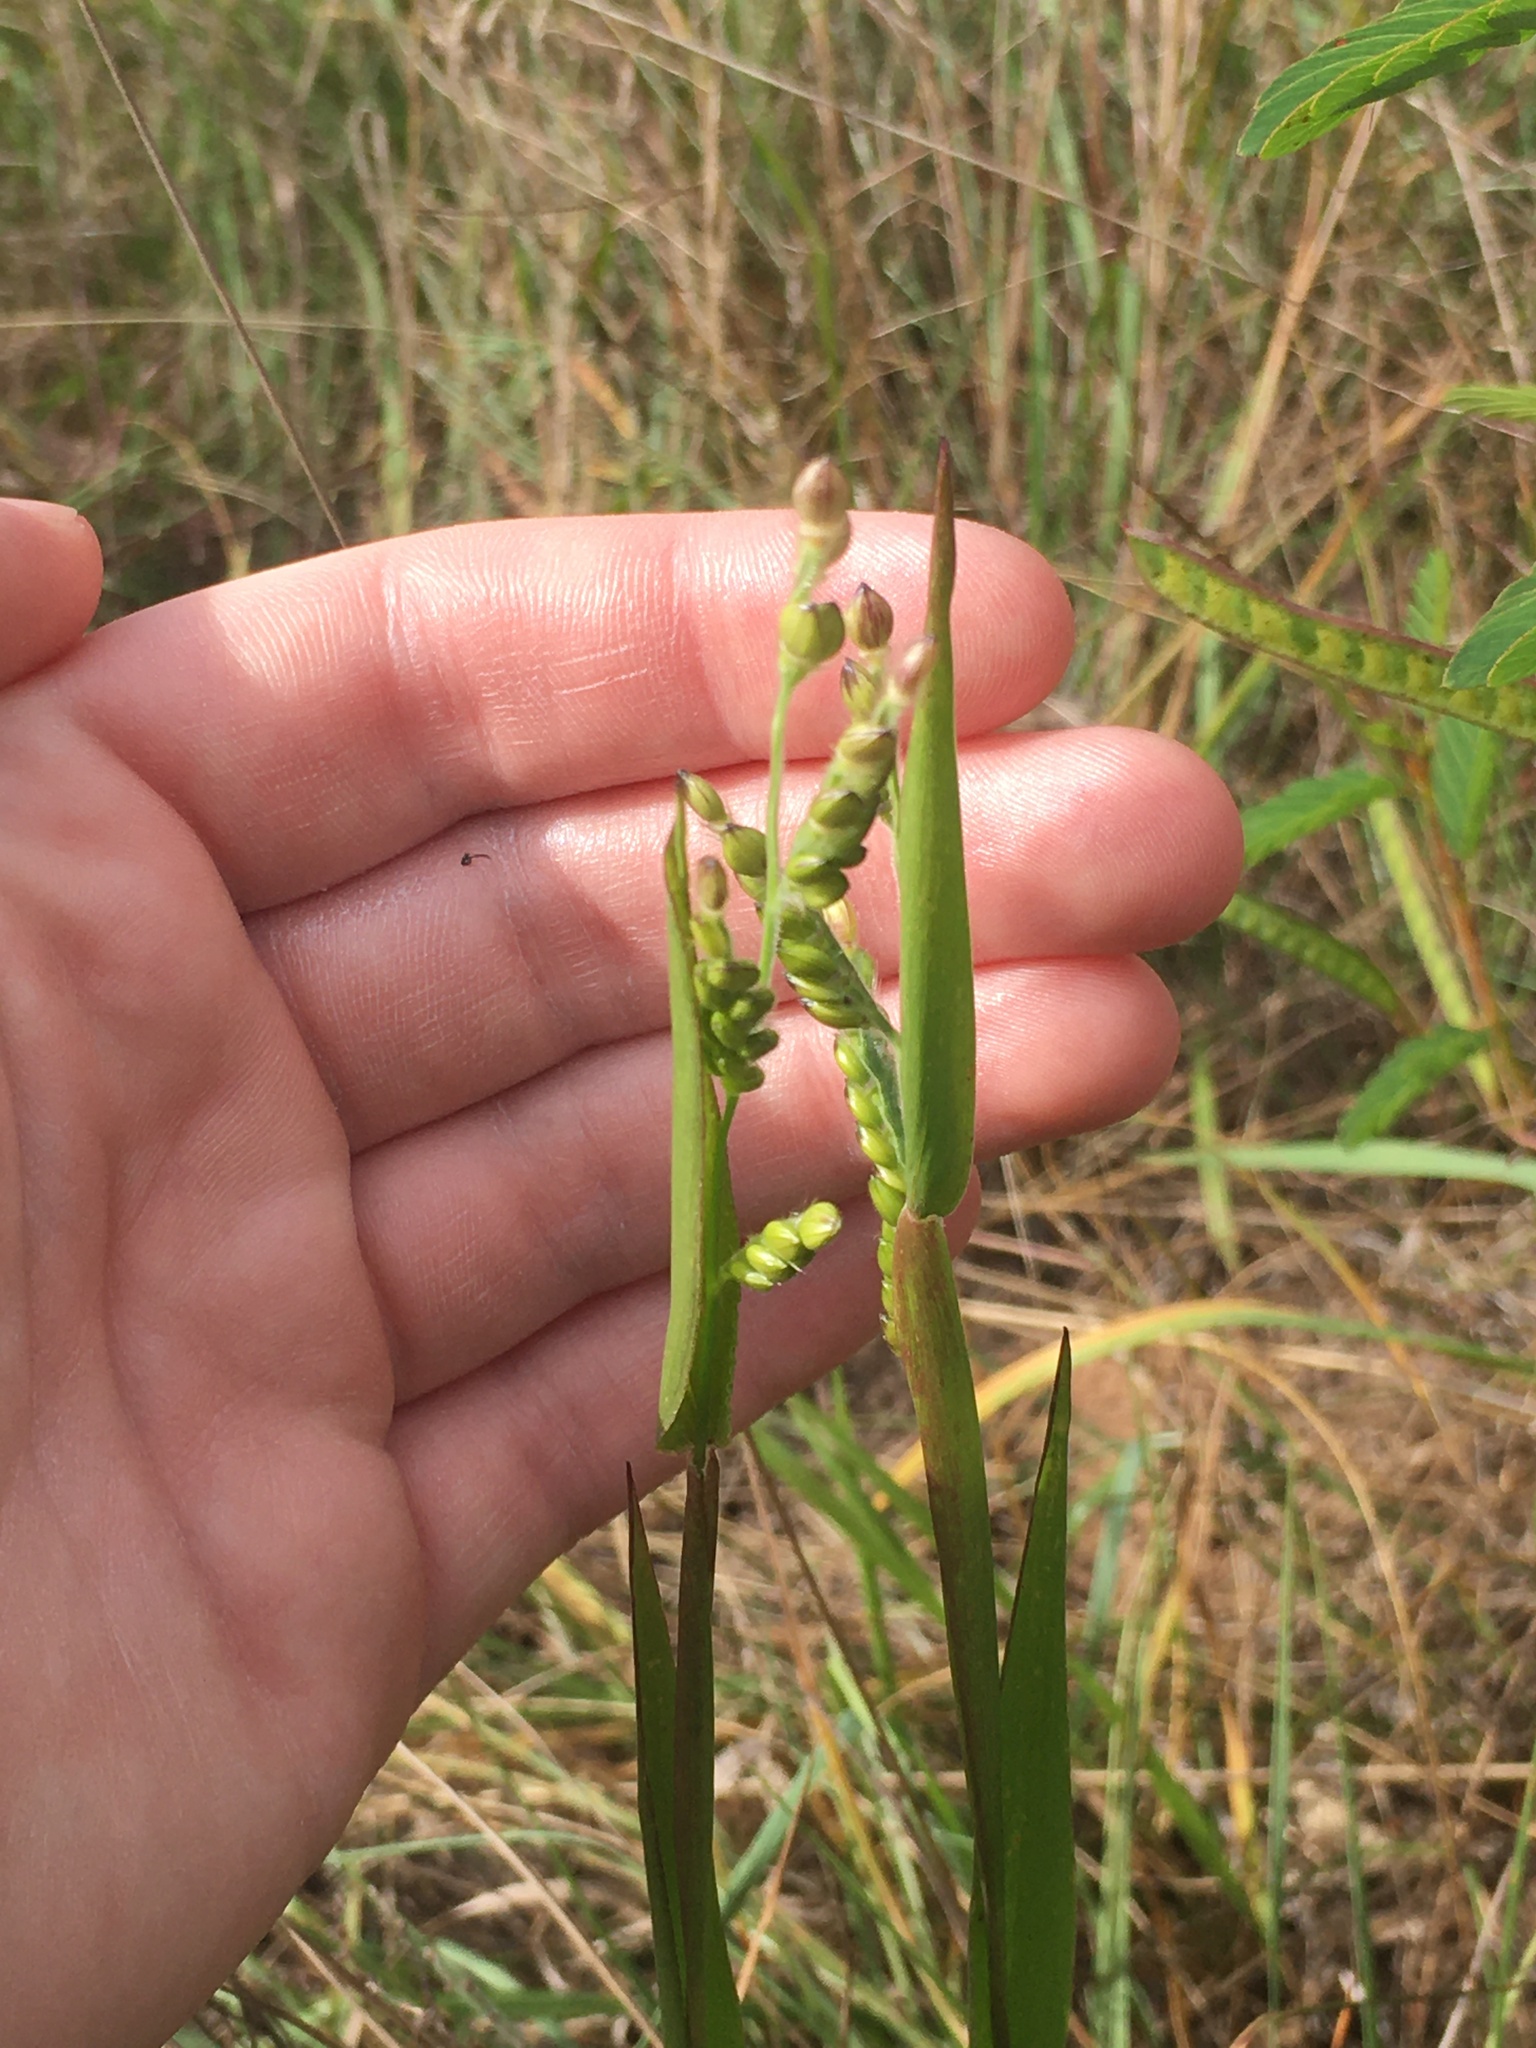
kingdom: Plantae
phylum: Tracheophyta
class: Liliopsida
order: Poales
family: Poaceae
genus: Eriochloa
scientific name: Eriochloa villosa
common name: Hairy cupgrass
